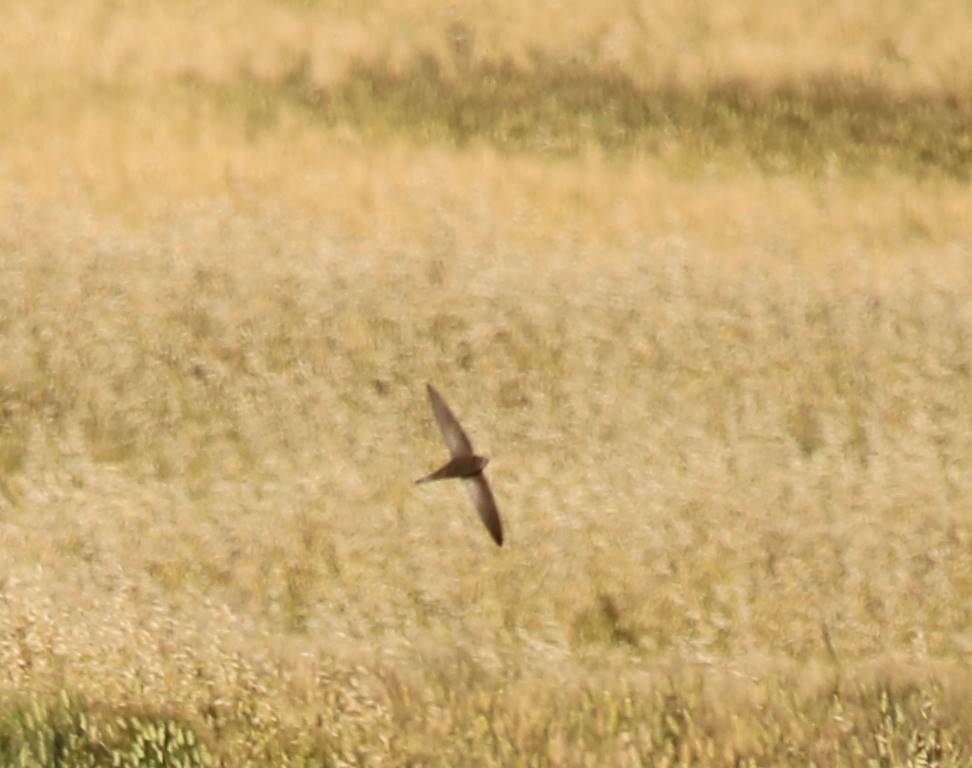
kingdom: Animalia
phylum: Chordata
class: Aves
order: Apodiformes
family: Apodidae
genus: Apus
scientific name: Apus pallidus
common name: Pallid swift
